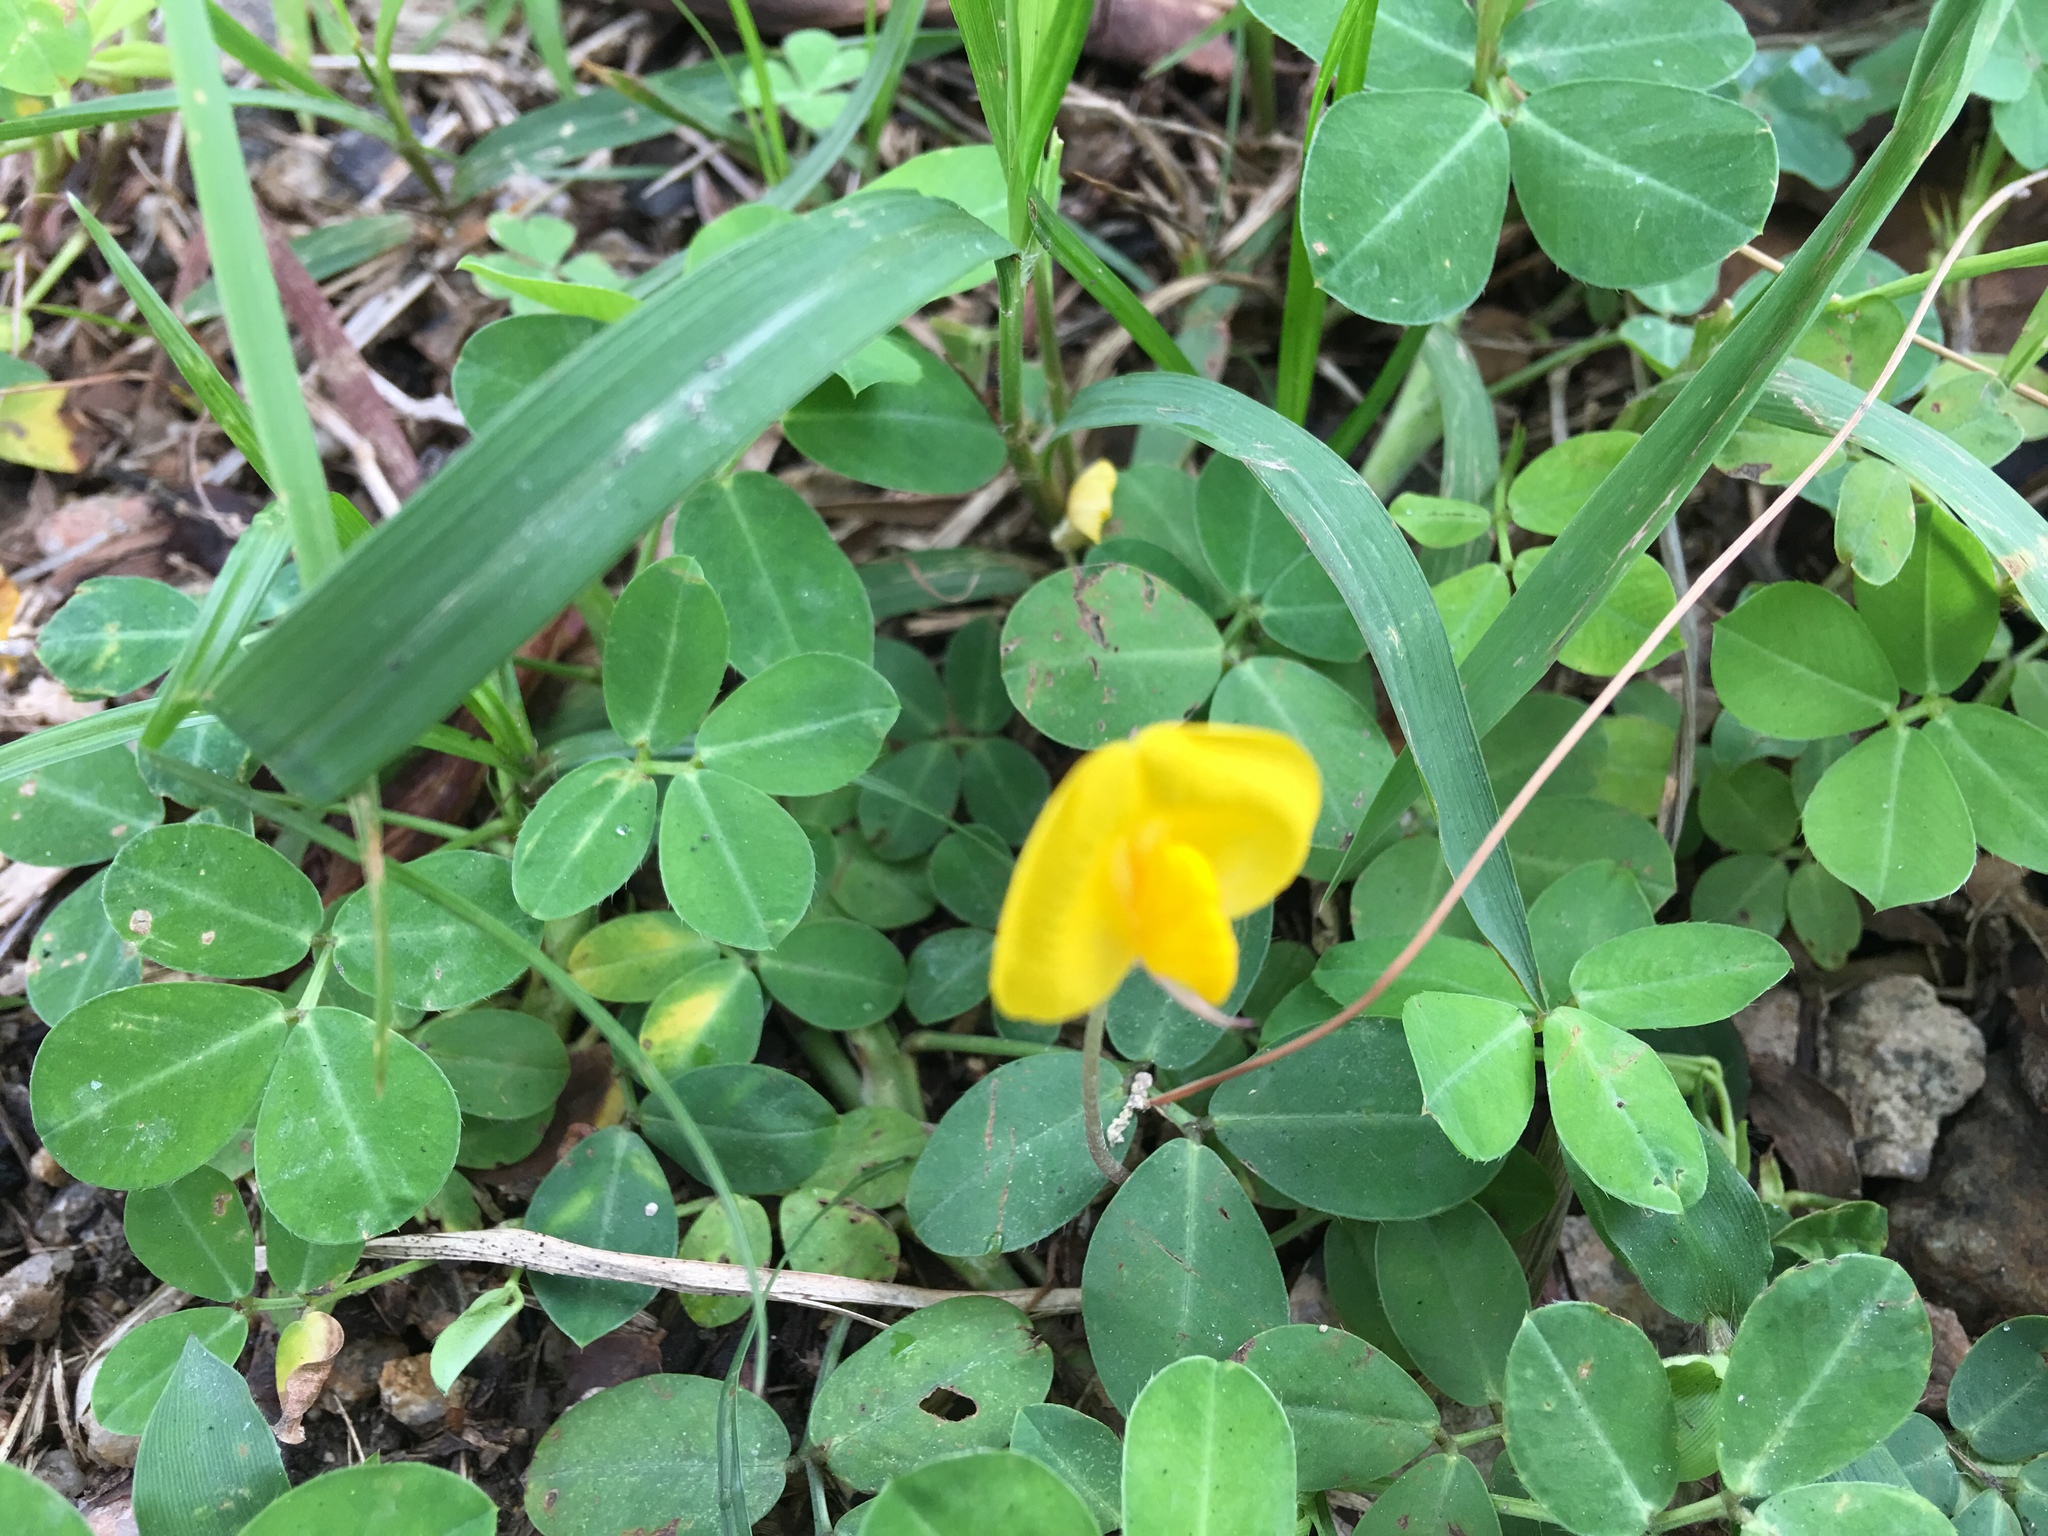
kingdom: Plantae
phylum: Tracheophyta
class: Magnoliopsida
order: Fabales
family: Fabaceae
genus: Arachis
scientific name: Arachis duranensis
